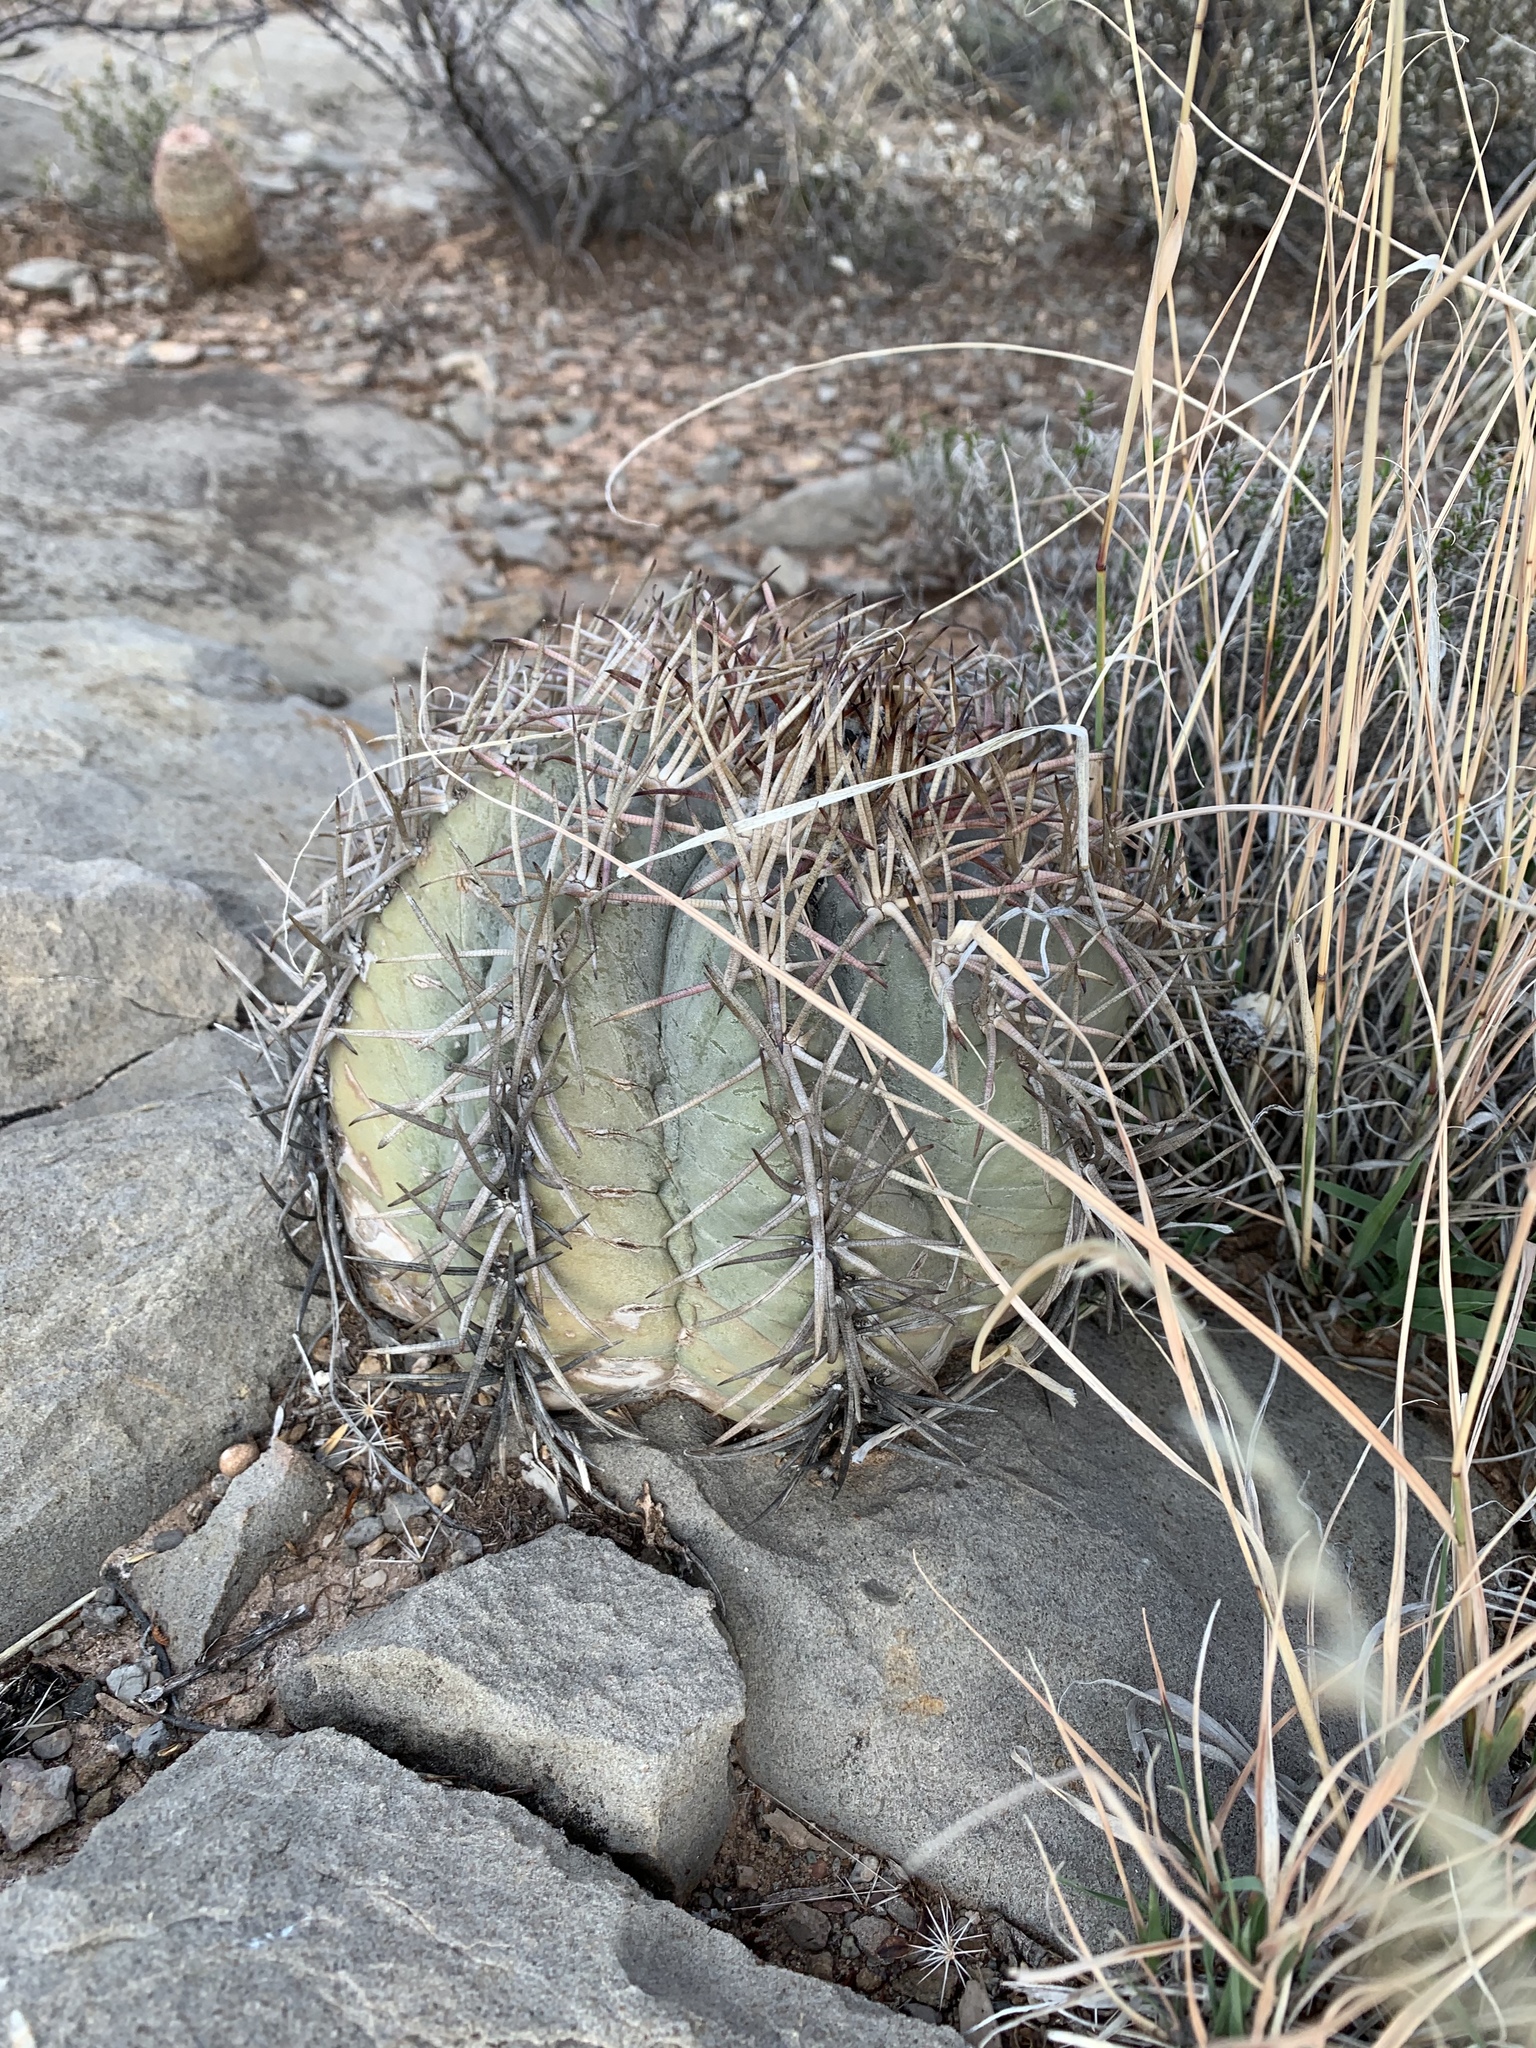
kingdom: Plantae
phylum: Tracheophyta
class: Magnoliopsida
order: Caryophyllales
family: Cactaceae
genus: Echinocactus
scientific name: Echinocactus horizonthalonius
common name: Devilshead
